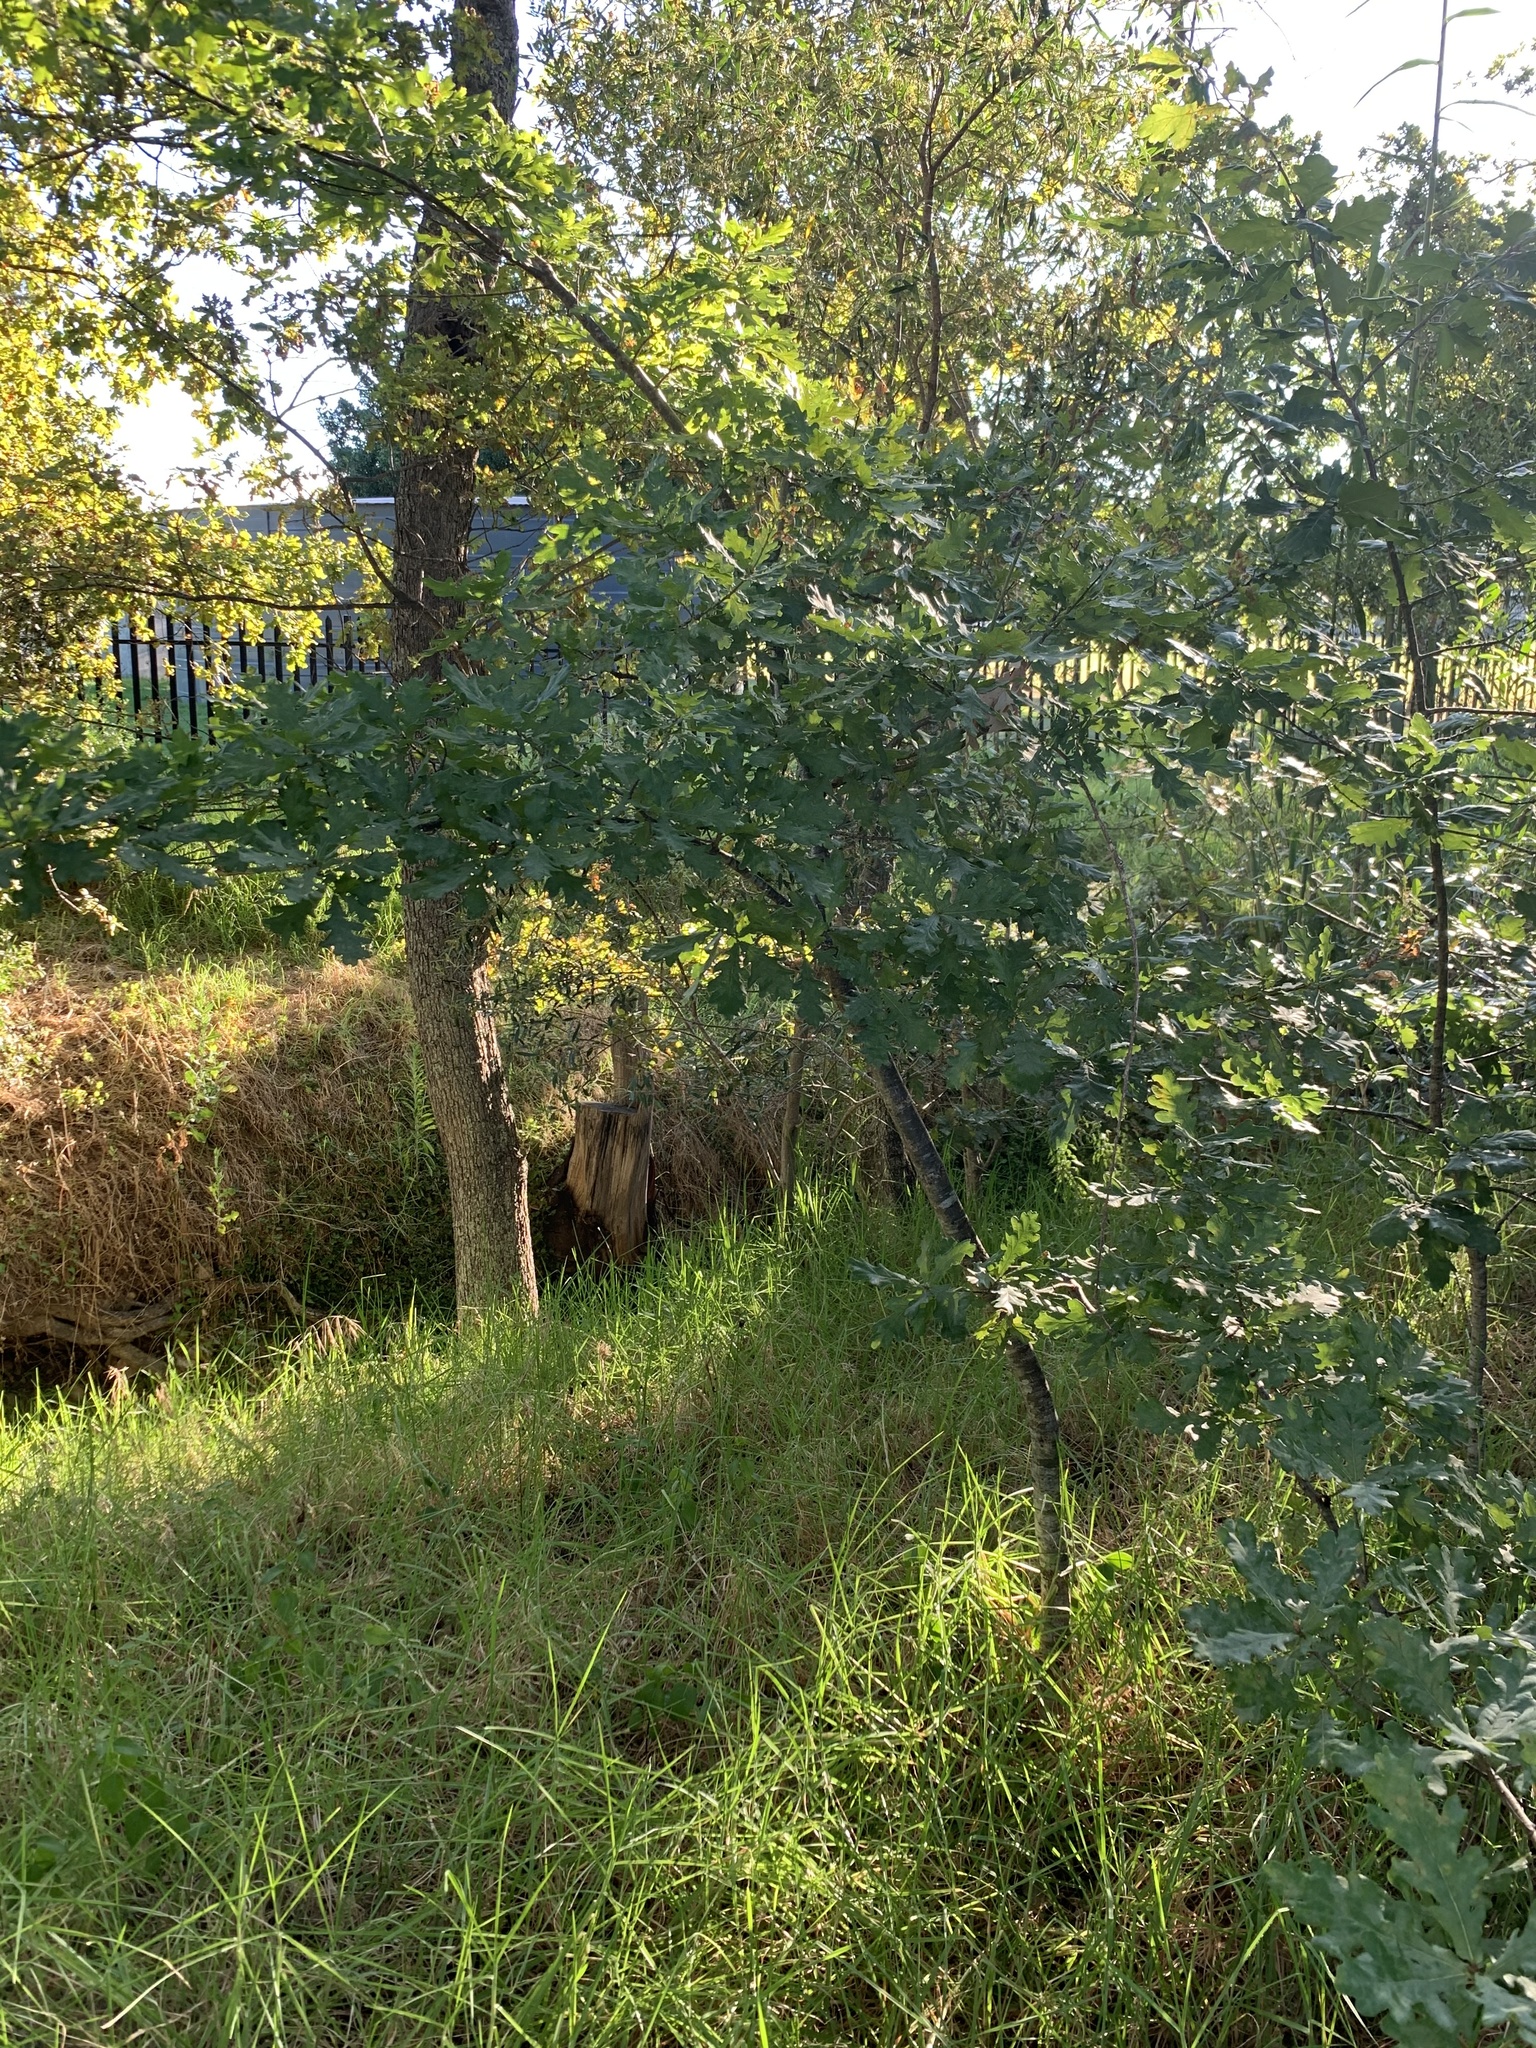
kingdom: Plantae
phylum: Tracheophyta
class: Magnoliopsida
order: Fagales
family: Fagaceae
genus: Quercus
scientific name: Quercus robur
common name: Pedunculate oak
